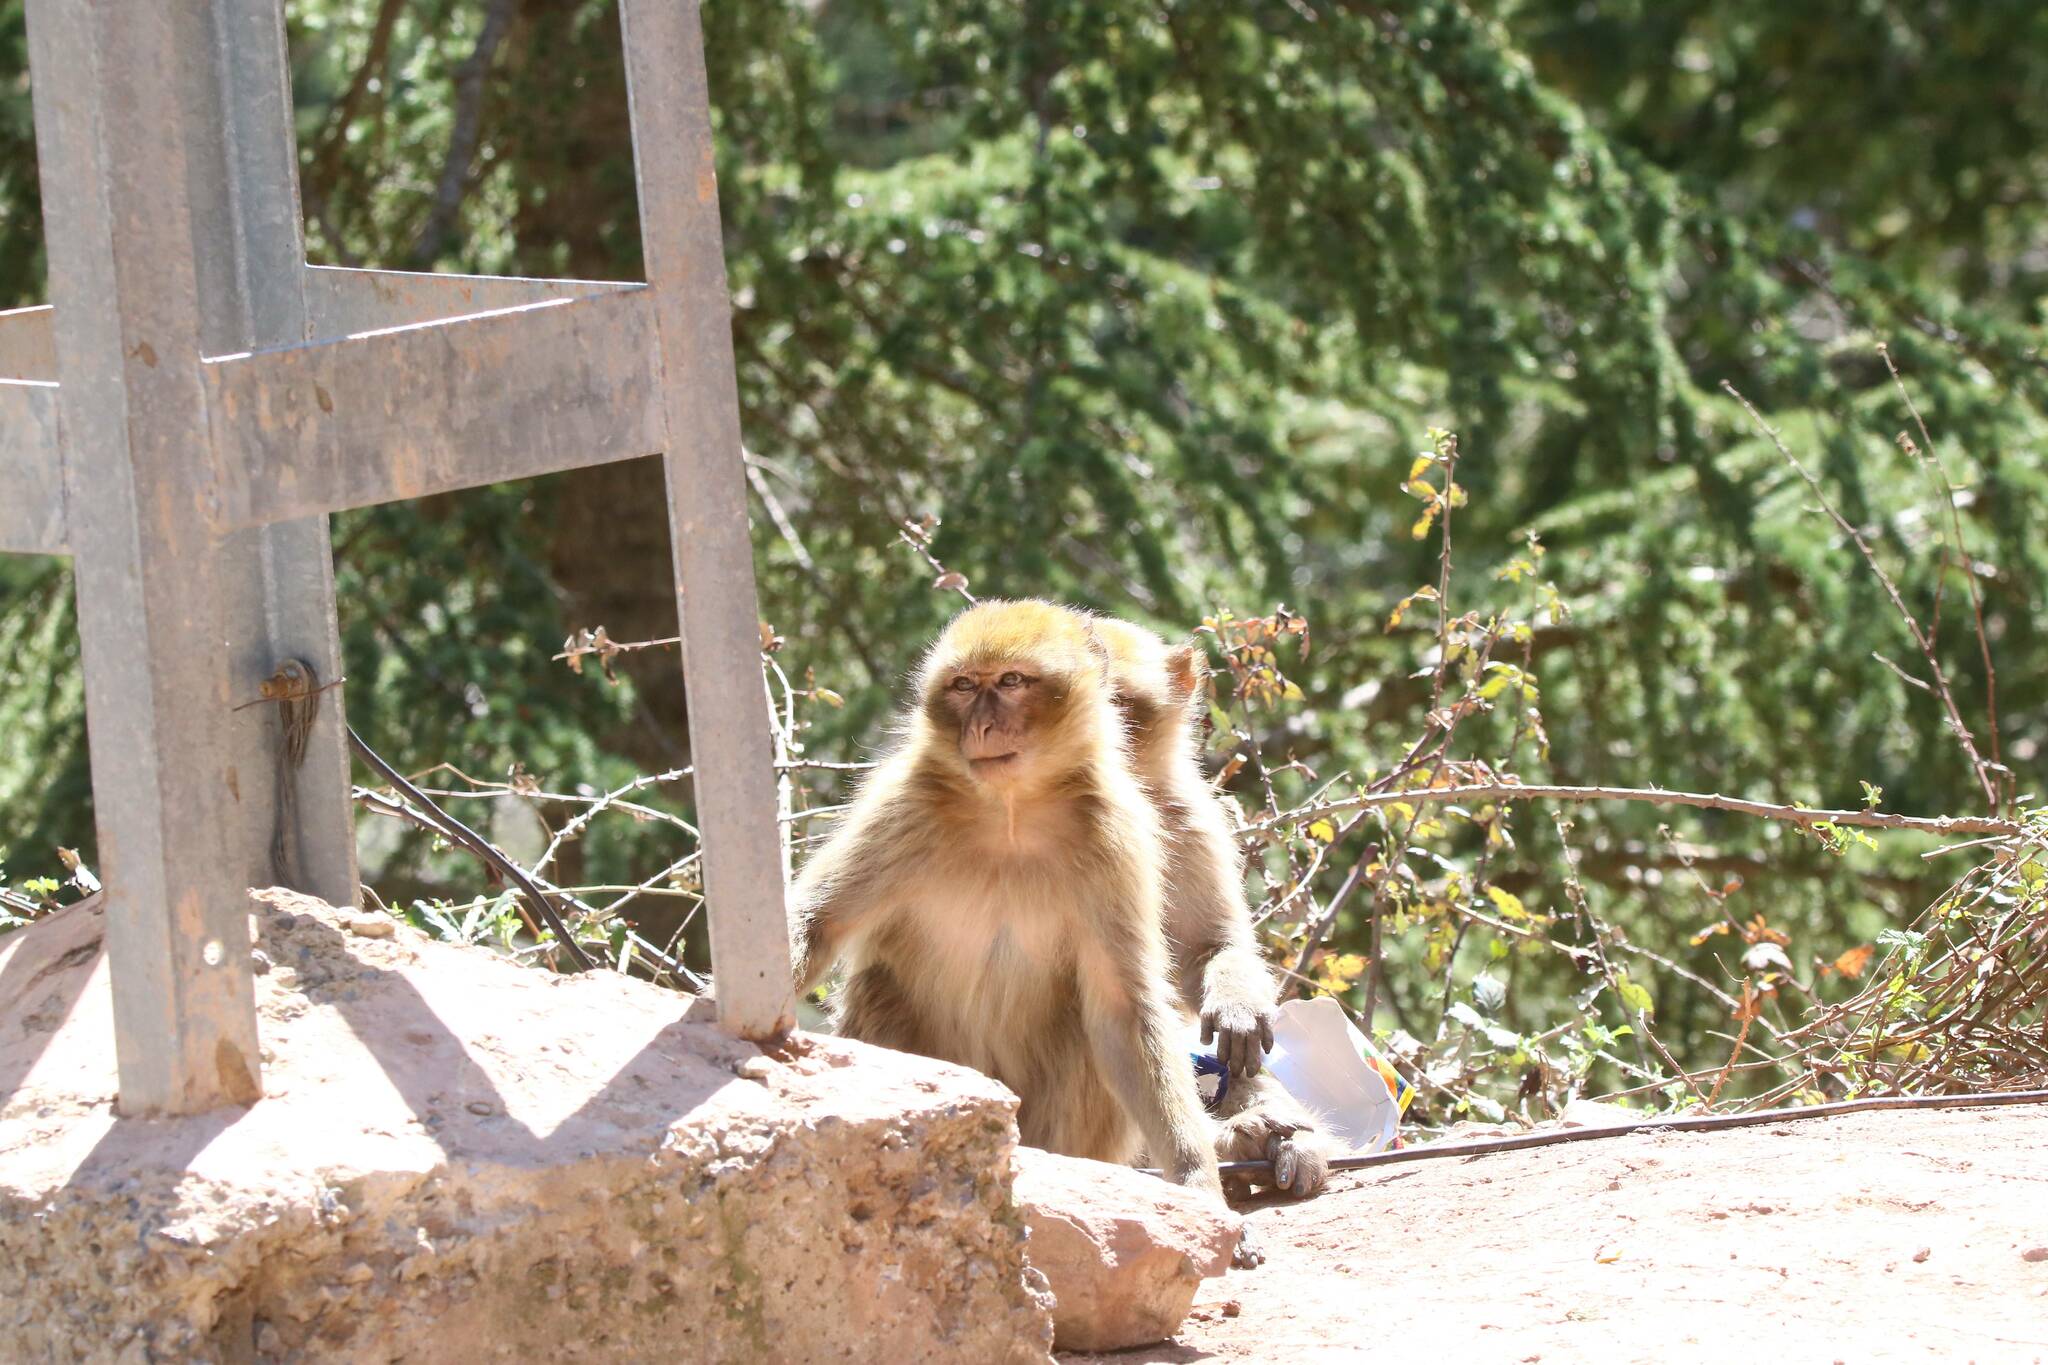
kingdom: Animalia
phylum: Chordata
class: Mammalia
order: Primates
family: Cercopithecidae
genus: Macaca
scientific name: Macaca sylvanus
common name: Barbary macaque
